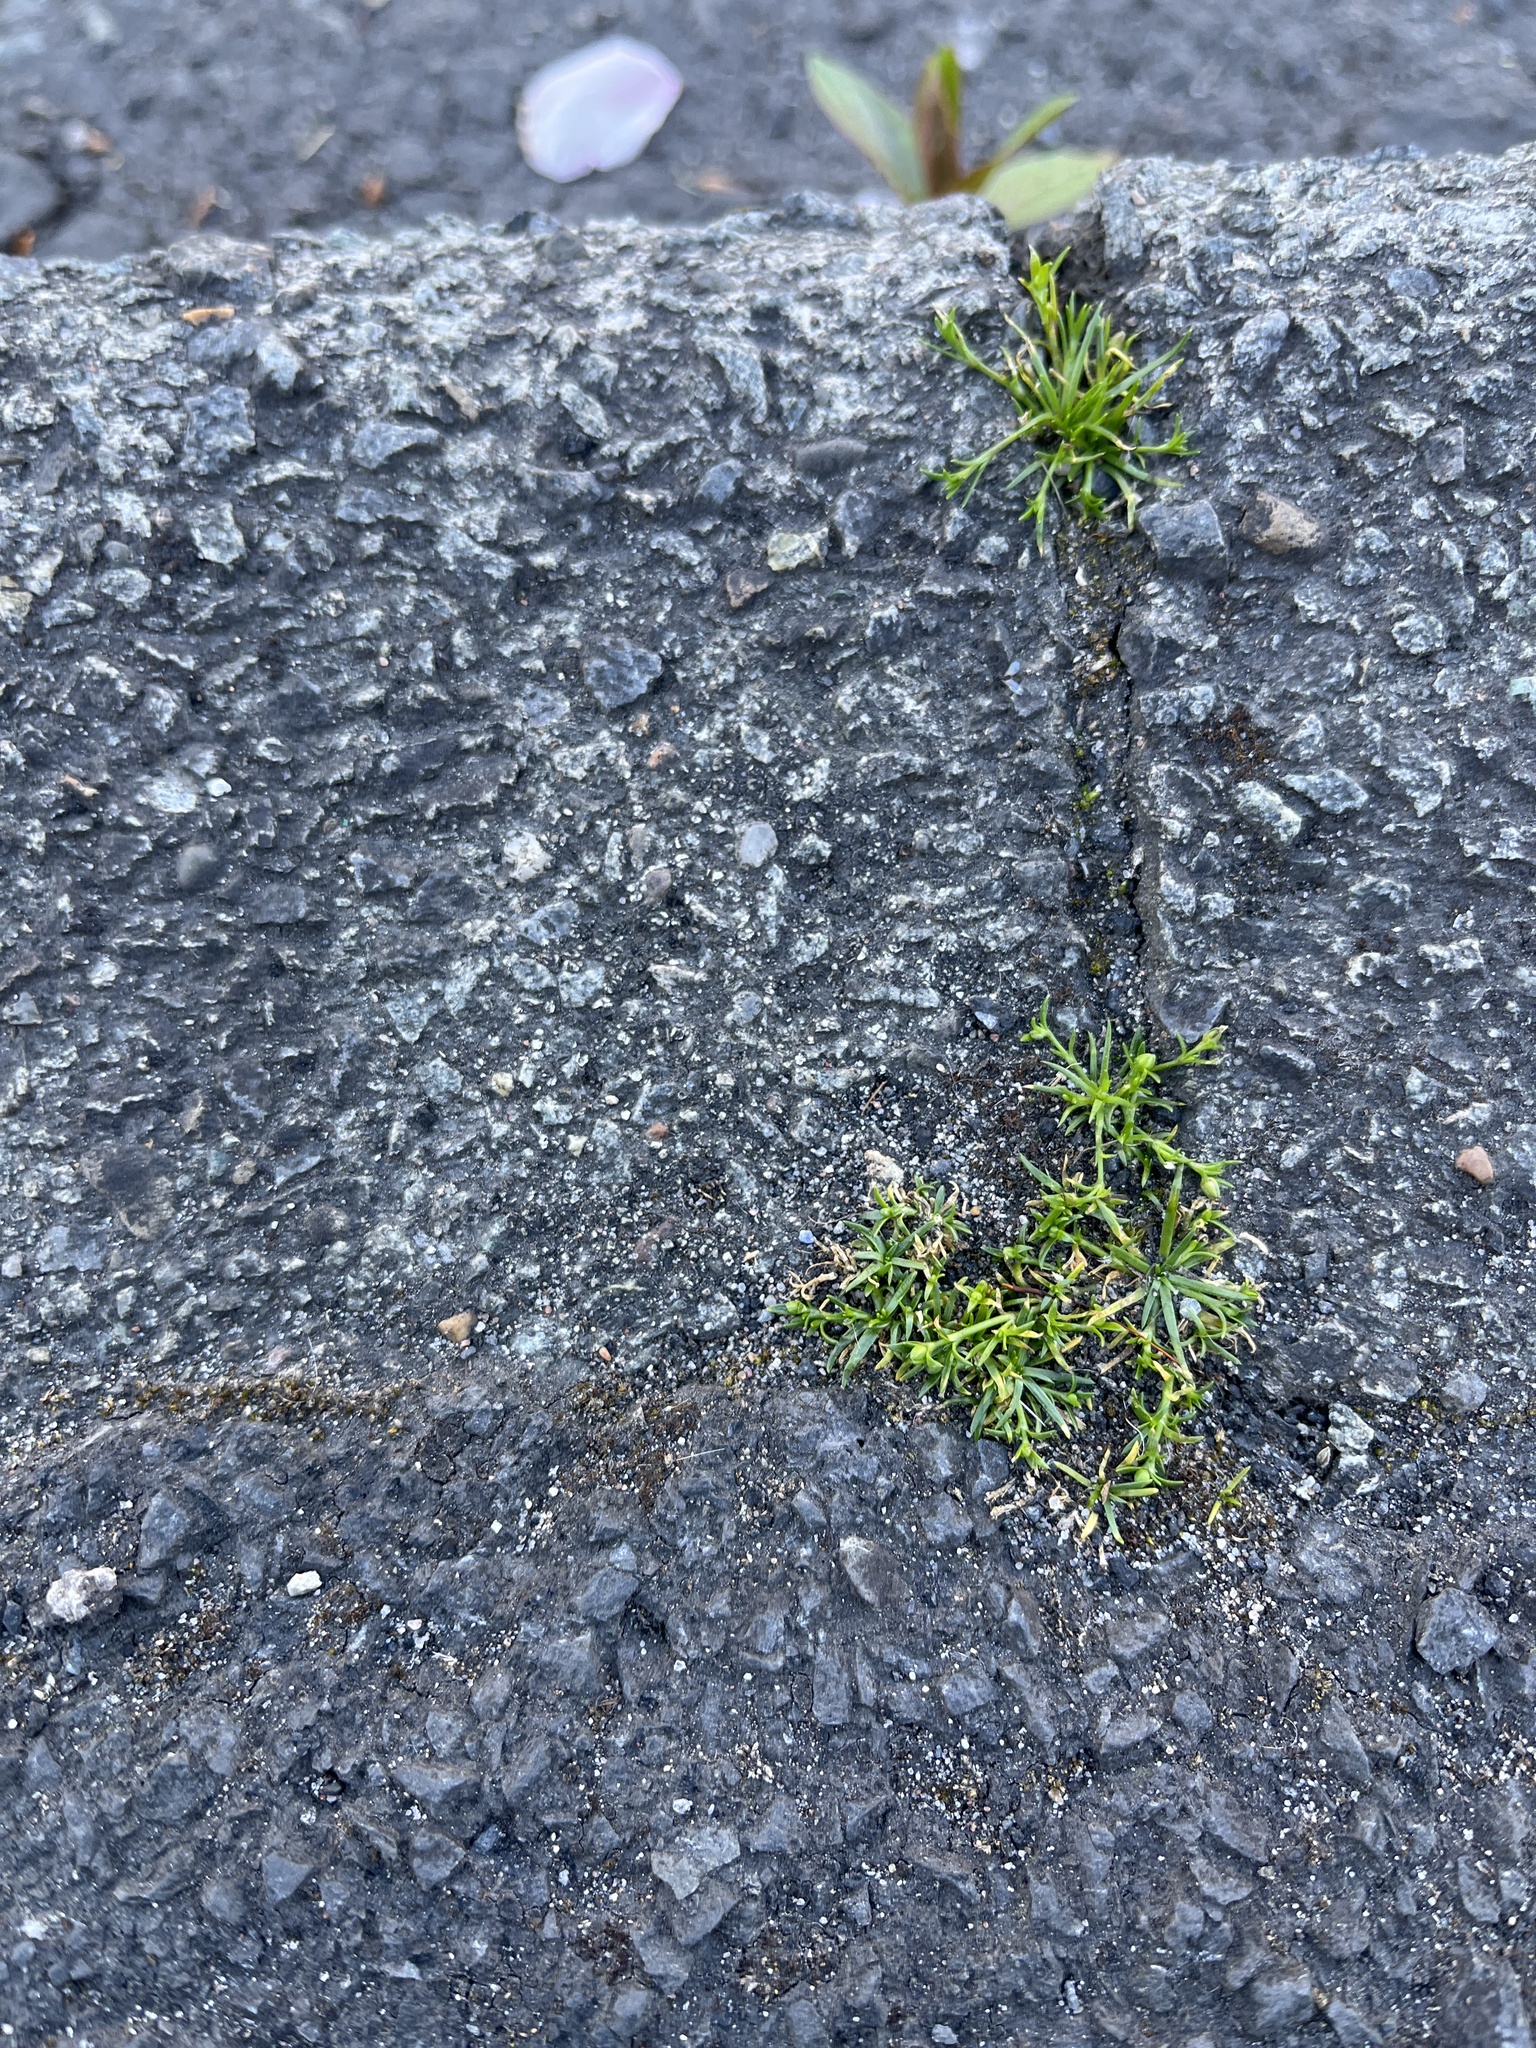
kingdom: Plantae
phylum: Tracheophyta
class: Magnoliopsida
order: Caryophyllales
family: Caryophyllaceae
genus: Sagina
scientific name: Sagina procumbens
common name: Procumbent pearlwort
